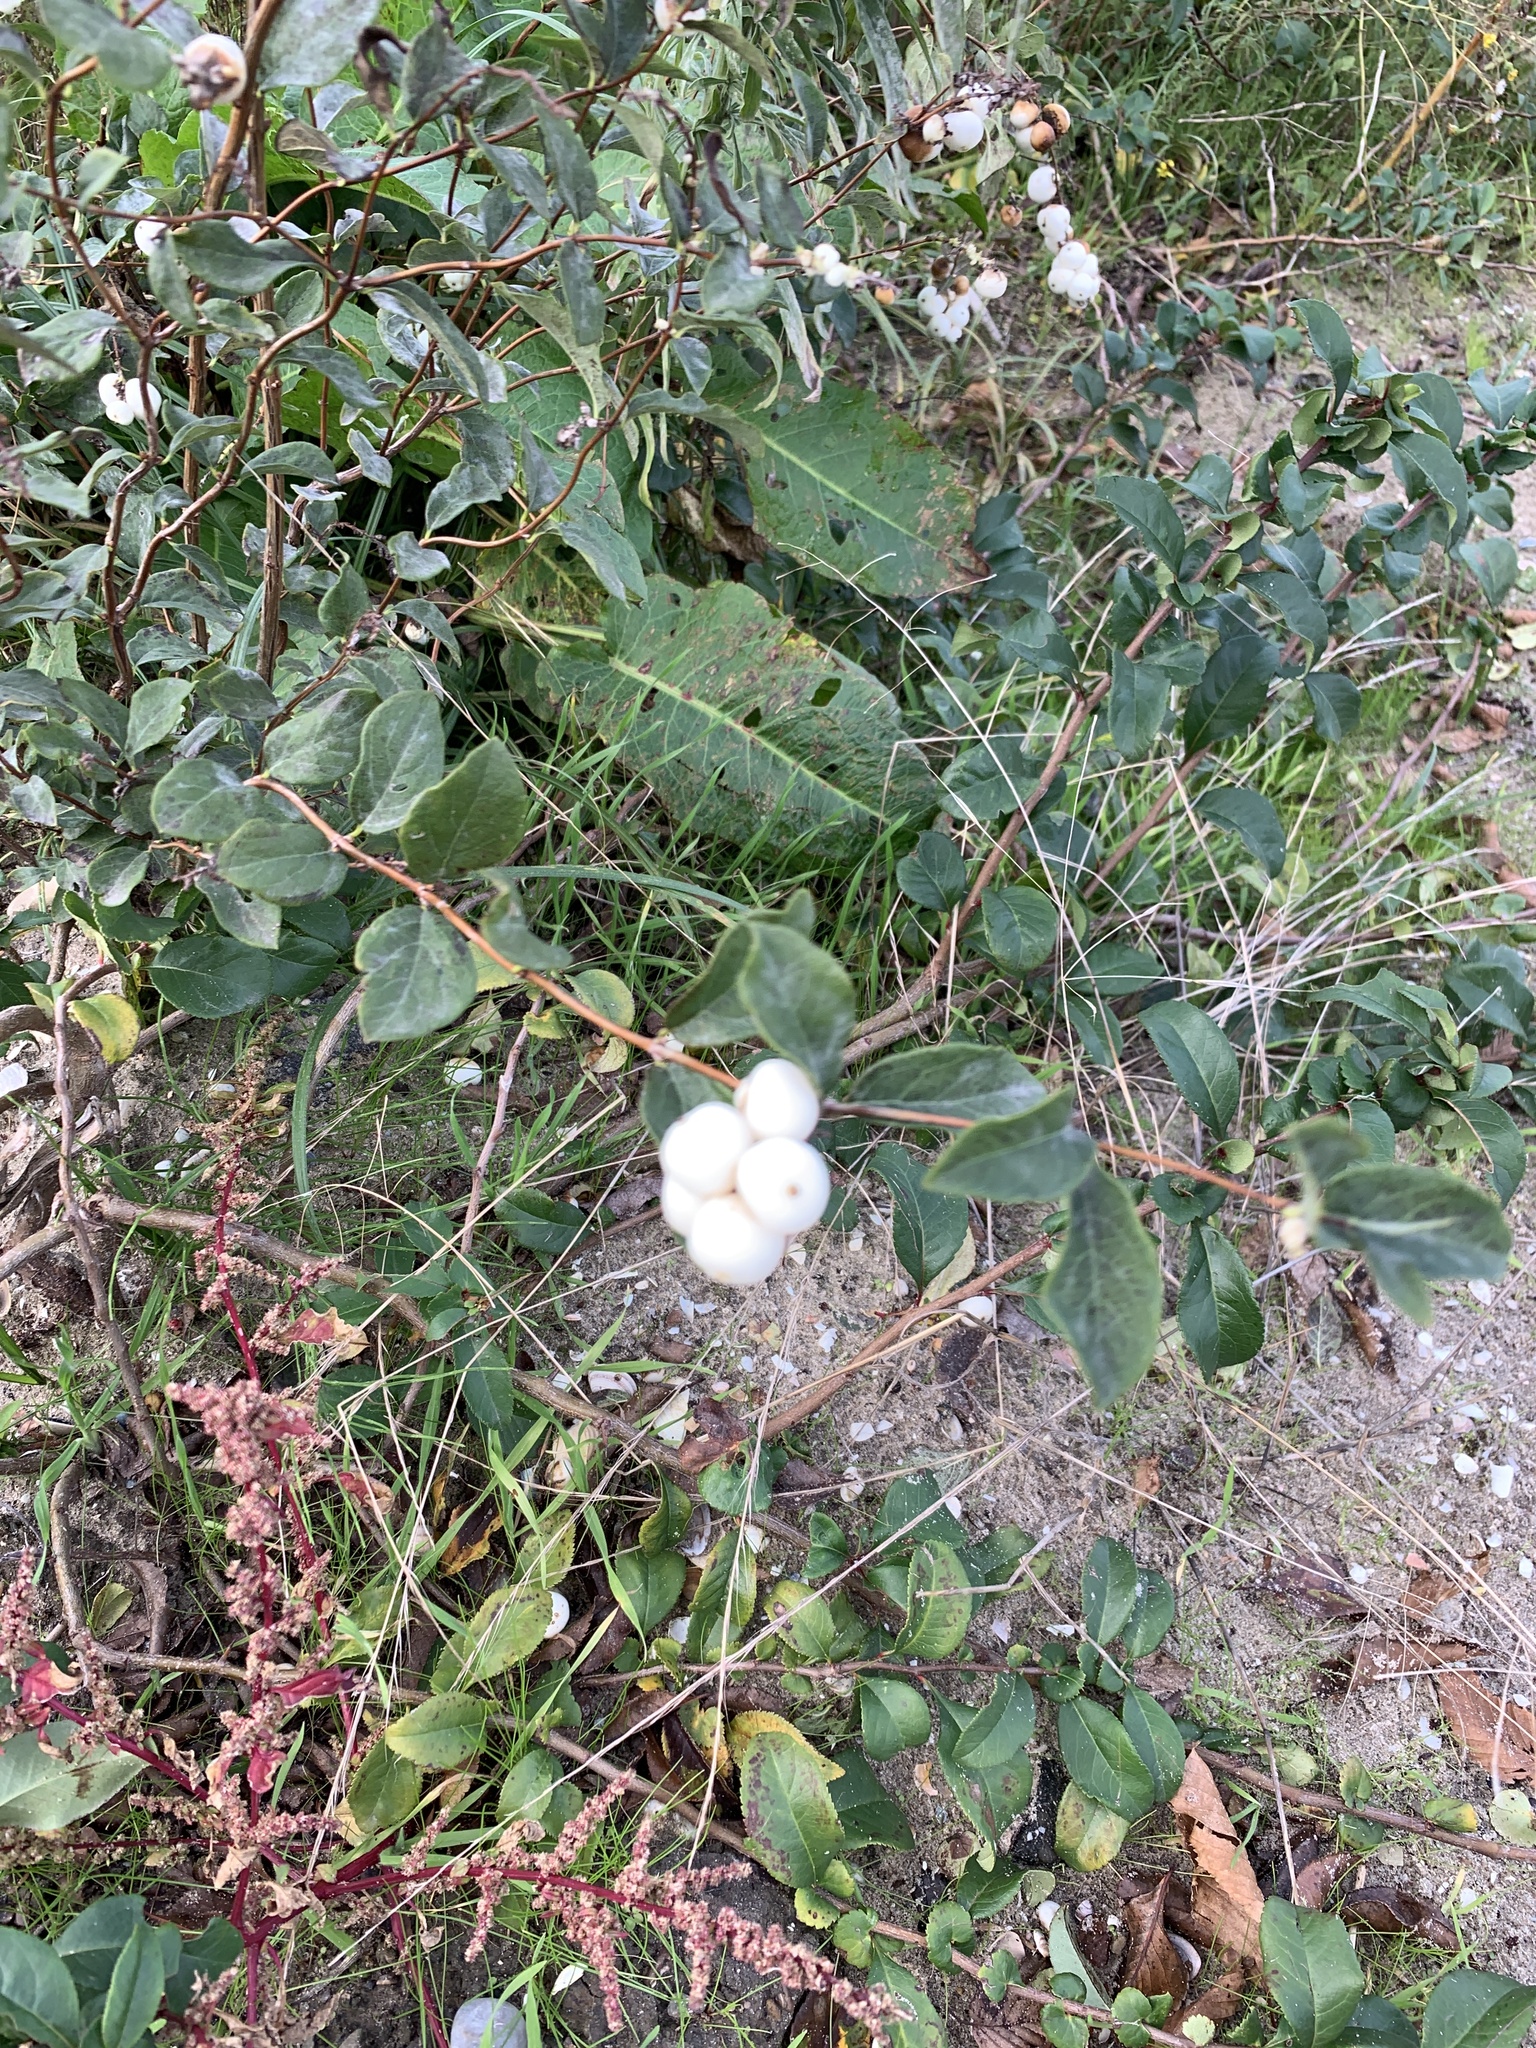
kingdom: Plantae
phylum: Tracheophyta
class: Magnoliopsida
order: Dipsacales
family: Caprifoliaceae
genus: Symphoricarpos
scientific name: Symphoricarpos albus
